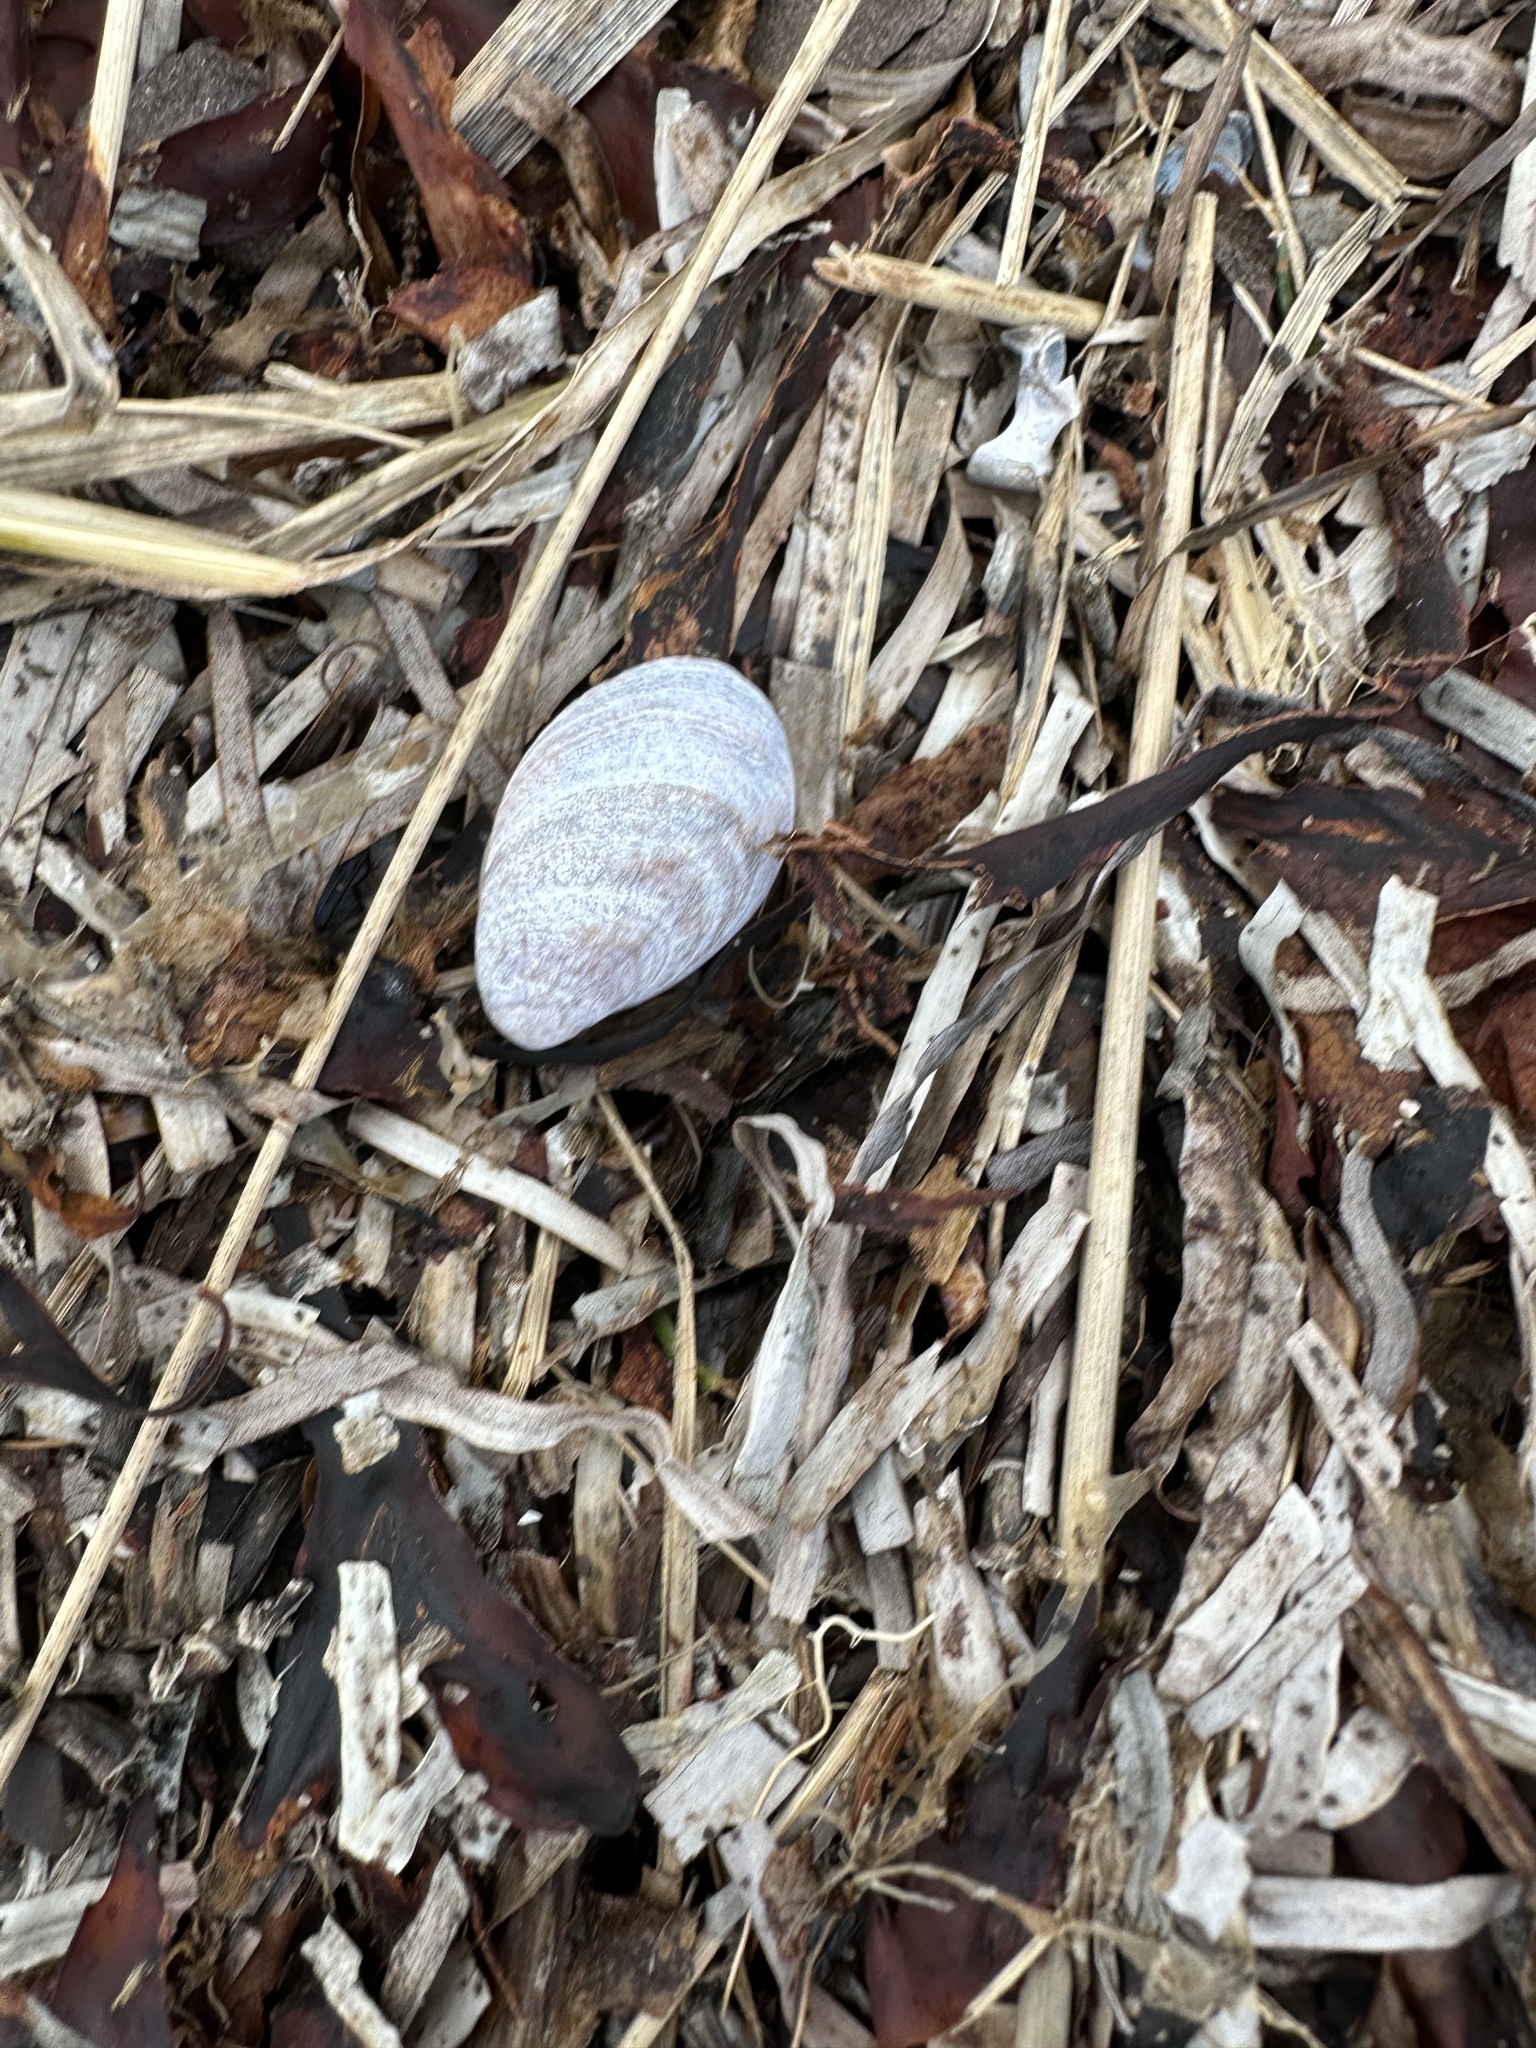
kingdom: Animalia
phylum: Mollusca
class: Gastropoda
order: Littorinimorpha
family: Calyptraeidae
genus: Crepidula
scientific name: Crepidula fornicata
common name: Slipper limpet
